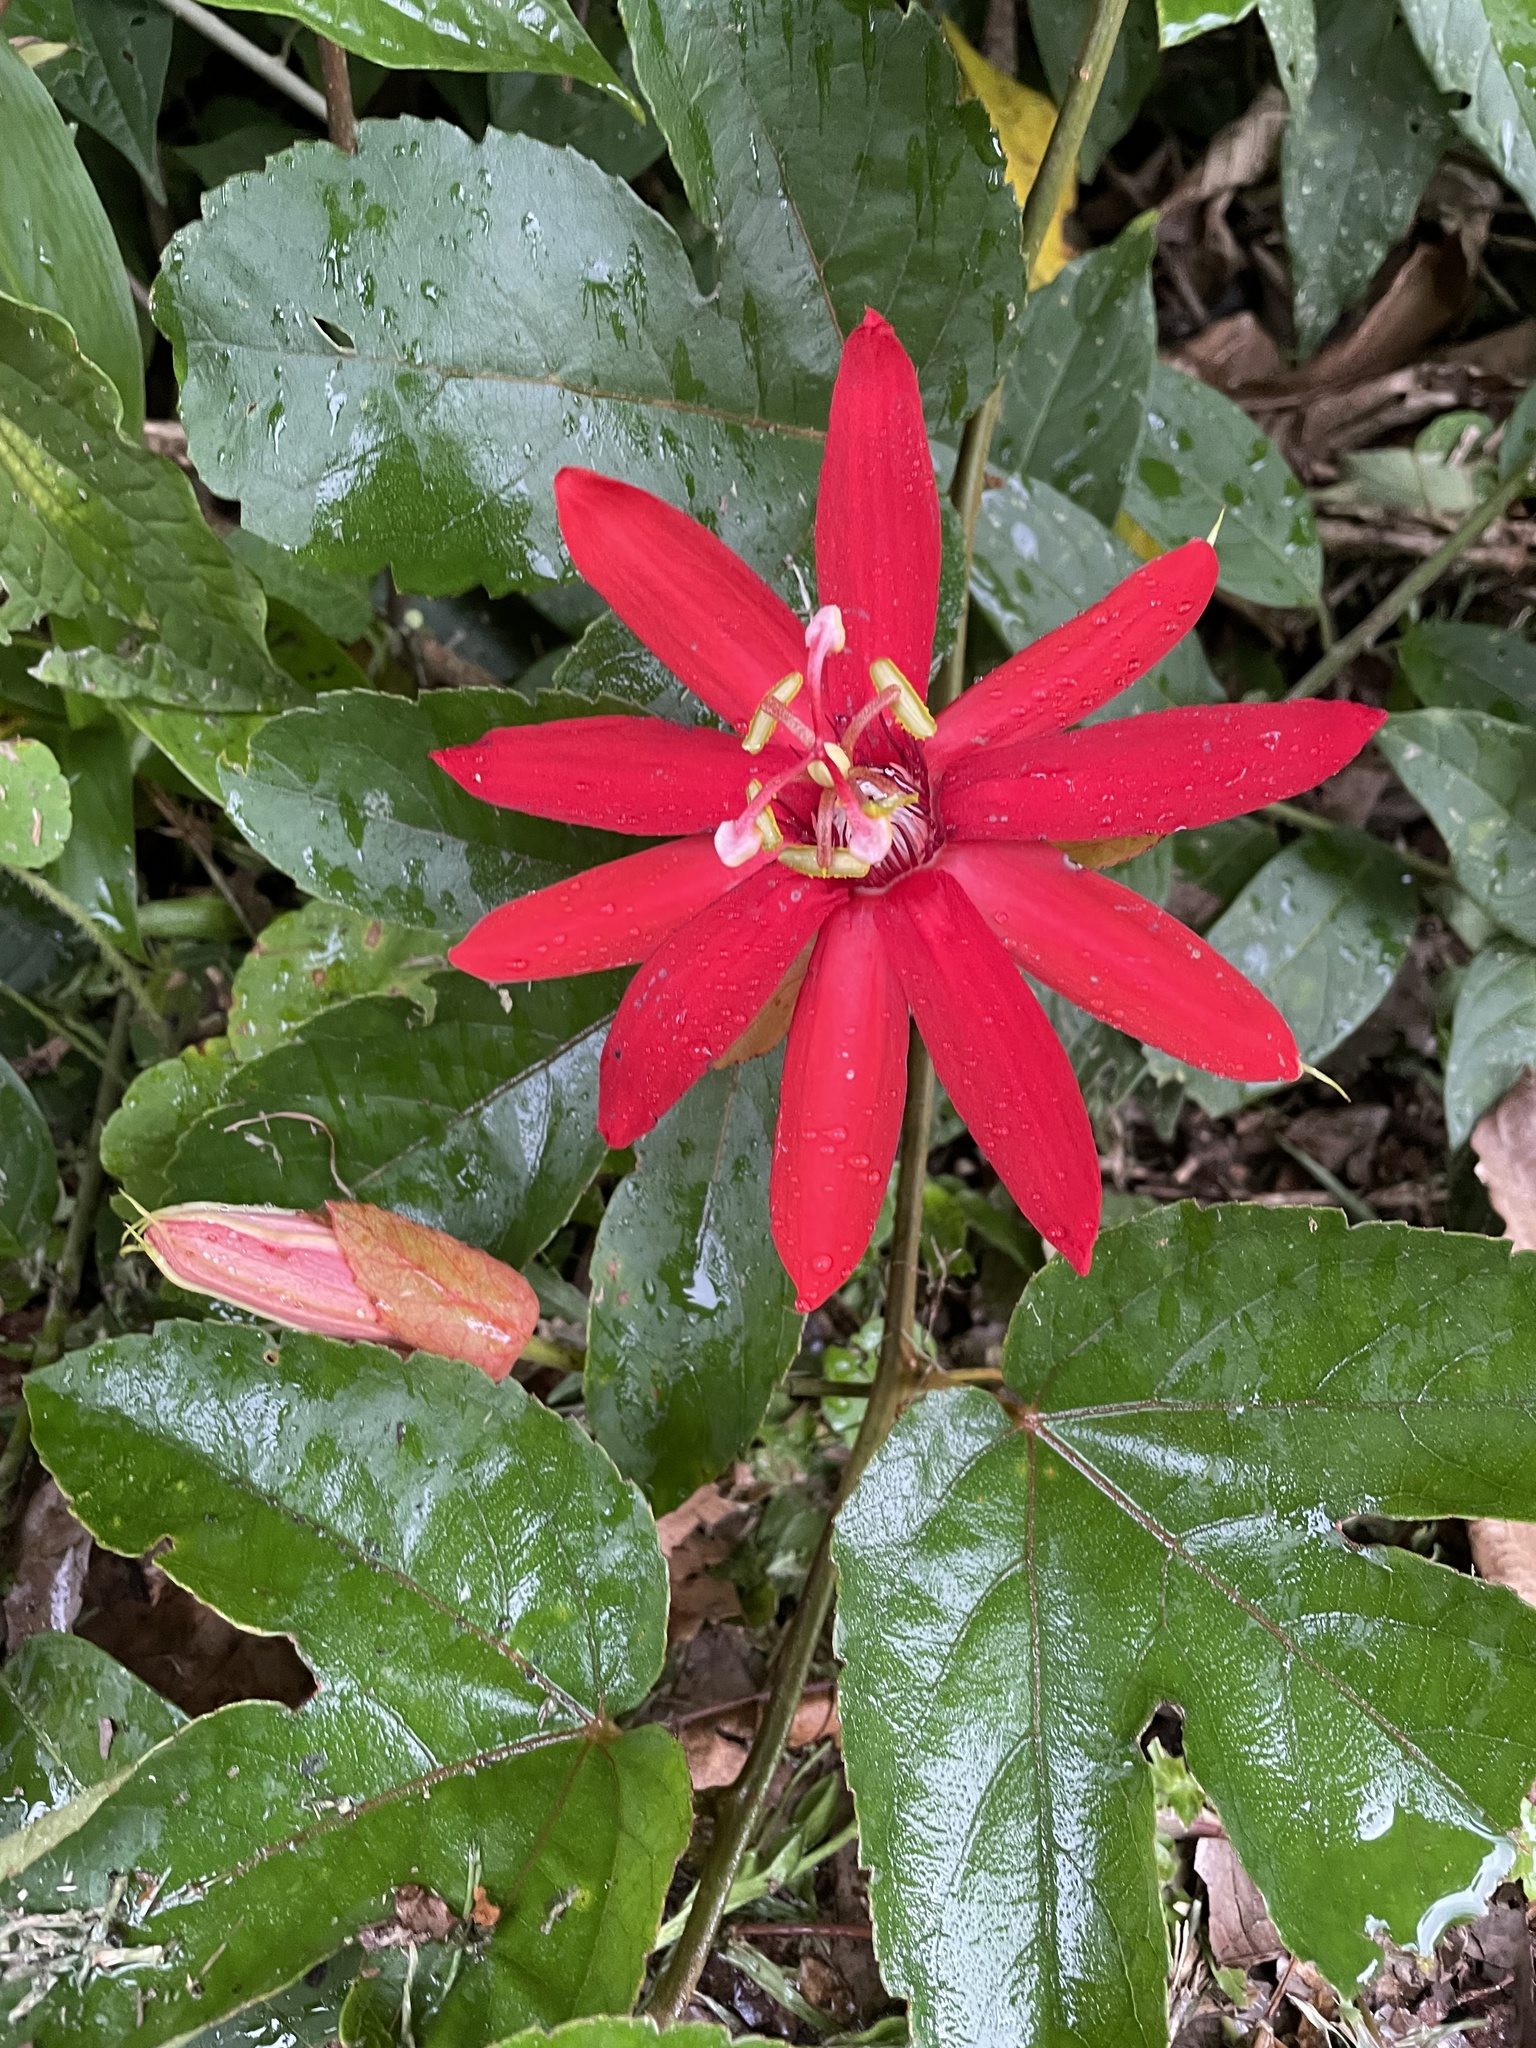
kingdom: Plantae
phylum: Tracheophyta
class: Magnoliopsida
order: Malpighiales
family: Passifloraceae
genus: Passiflora
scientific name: Passiflora vitifolia
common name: Perfumed passionflower
